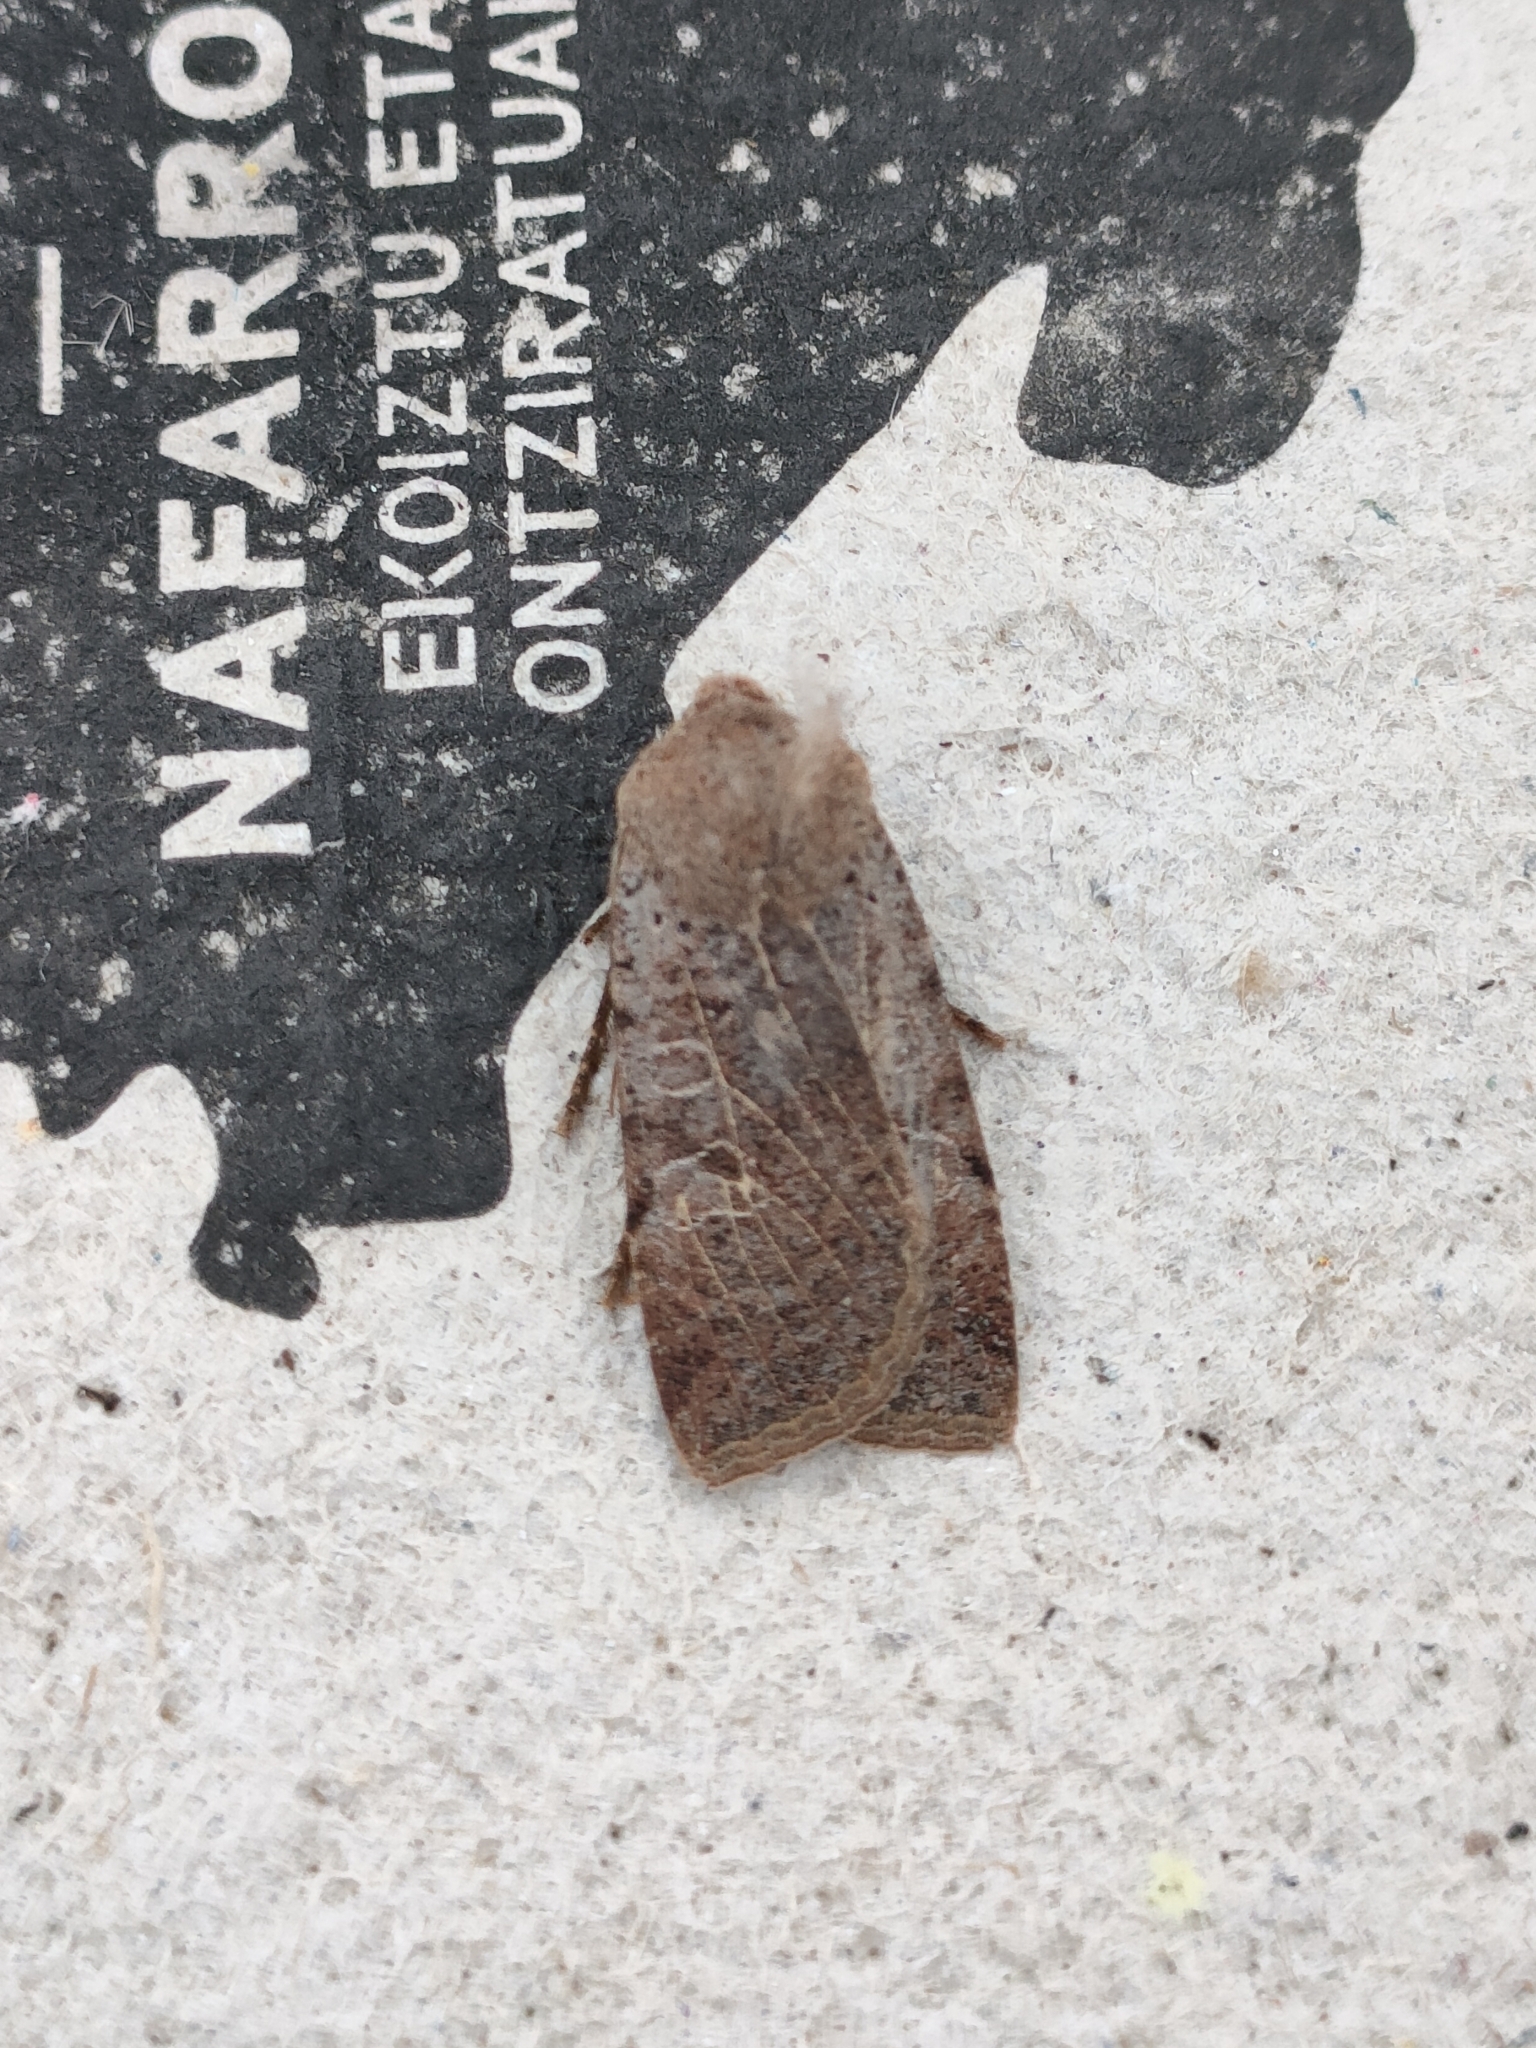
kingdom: Animalia
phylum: Arthropoda
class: Insecta
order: Lepidoptera
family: Noctuidae
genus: Conistra
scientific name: Conistra gallica
